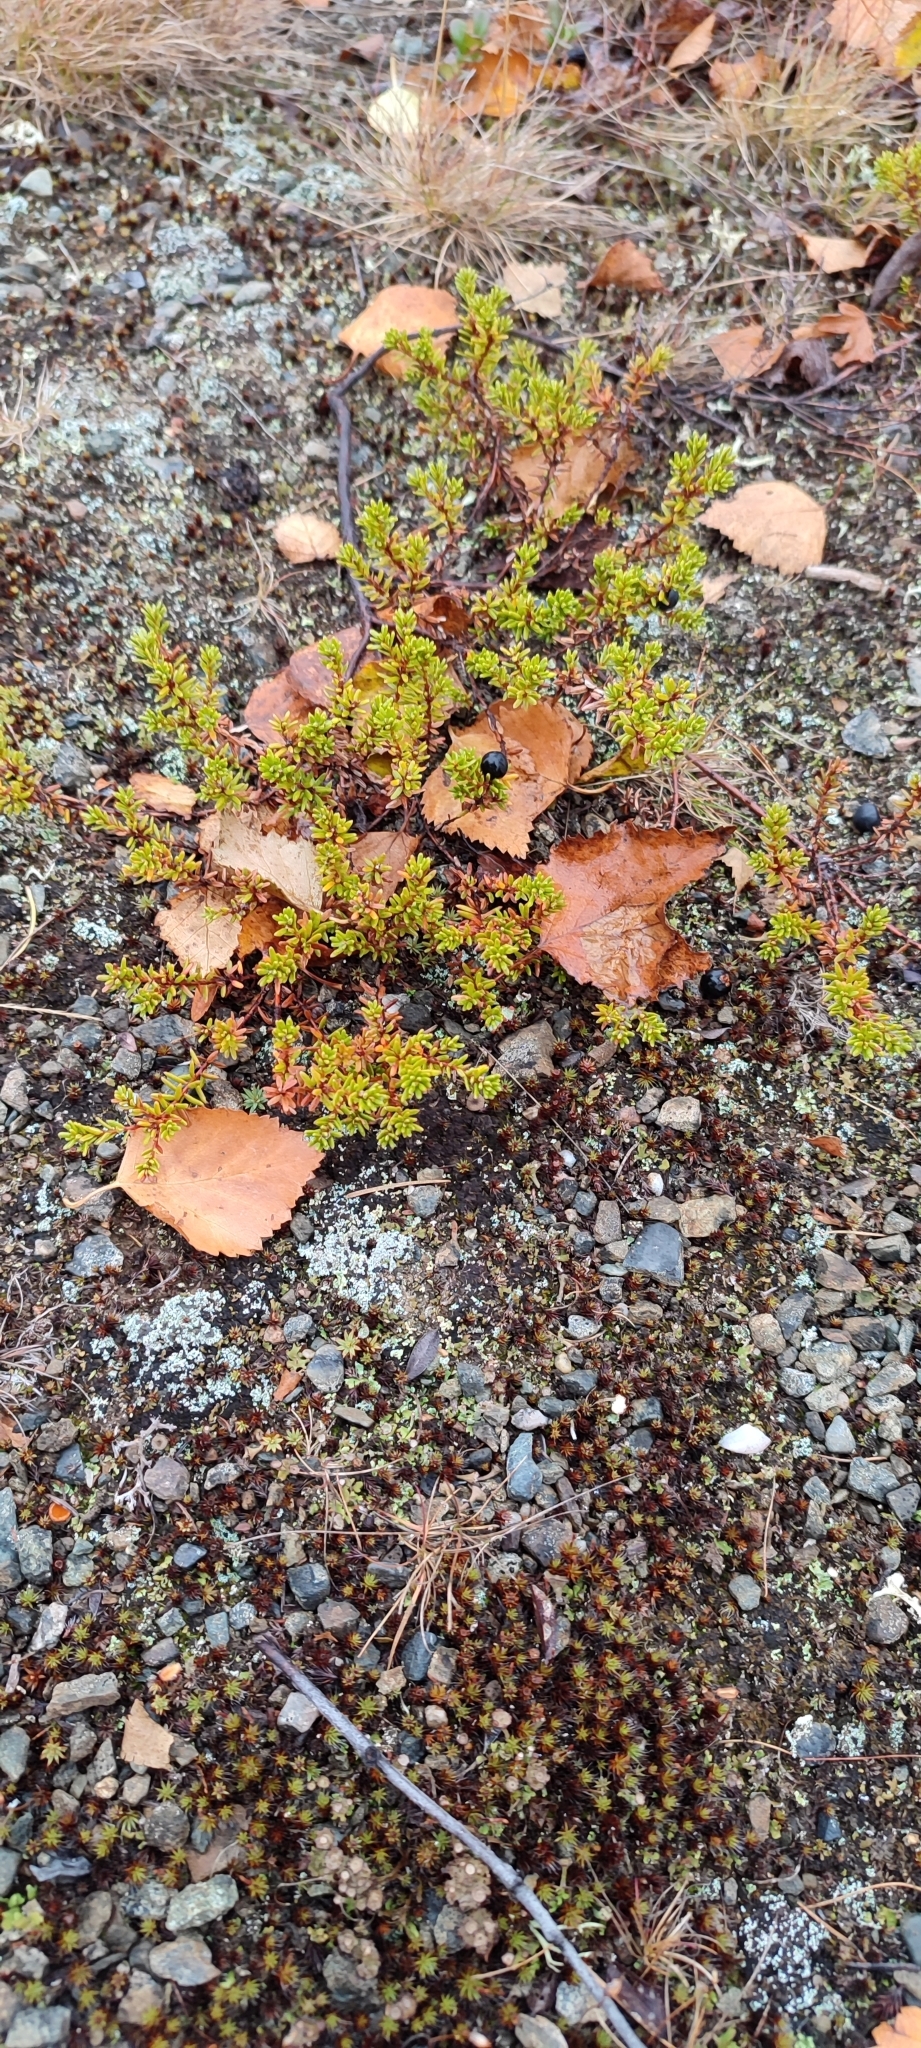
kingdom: Plantae
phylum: Tracheophyta
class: Magnoliopsida
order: Ericales
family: Ericaceae
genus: Empetrum
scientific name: Empetrum nigrum
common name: Black crowberry
